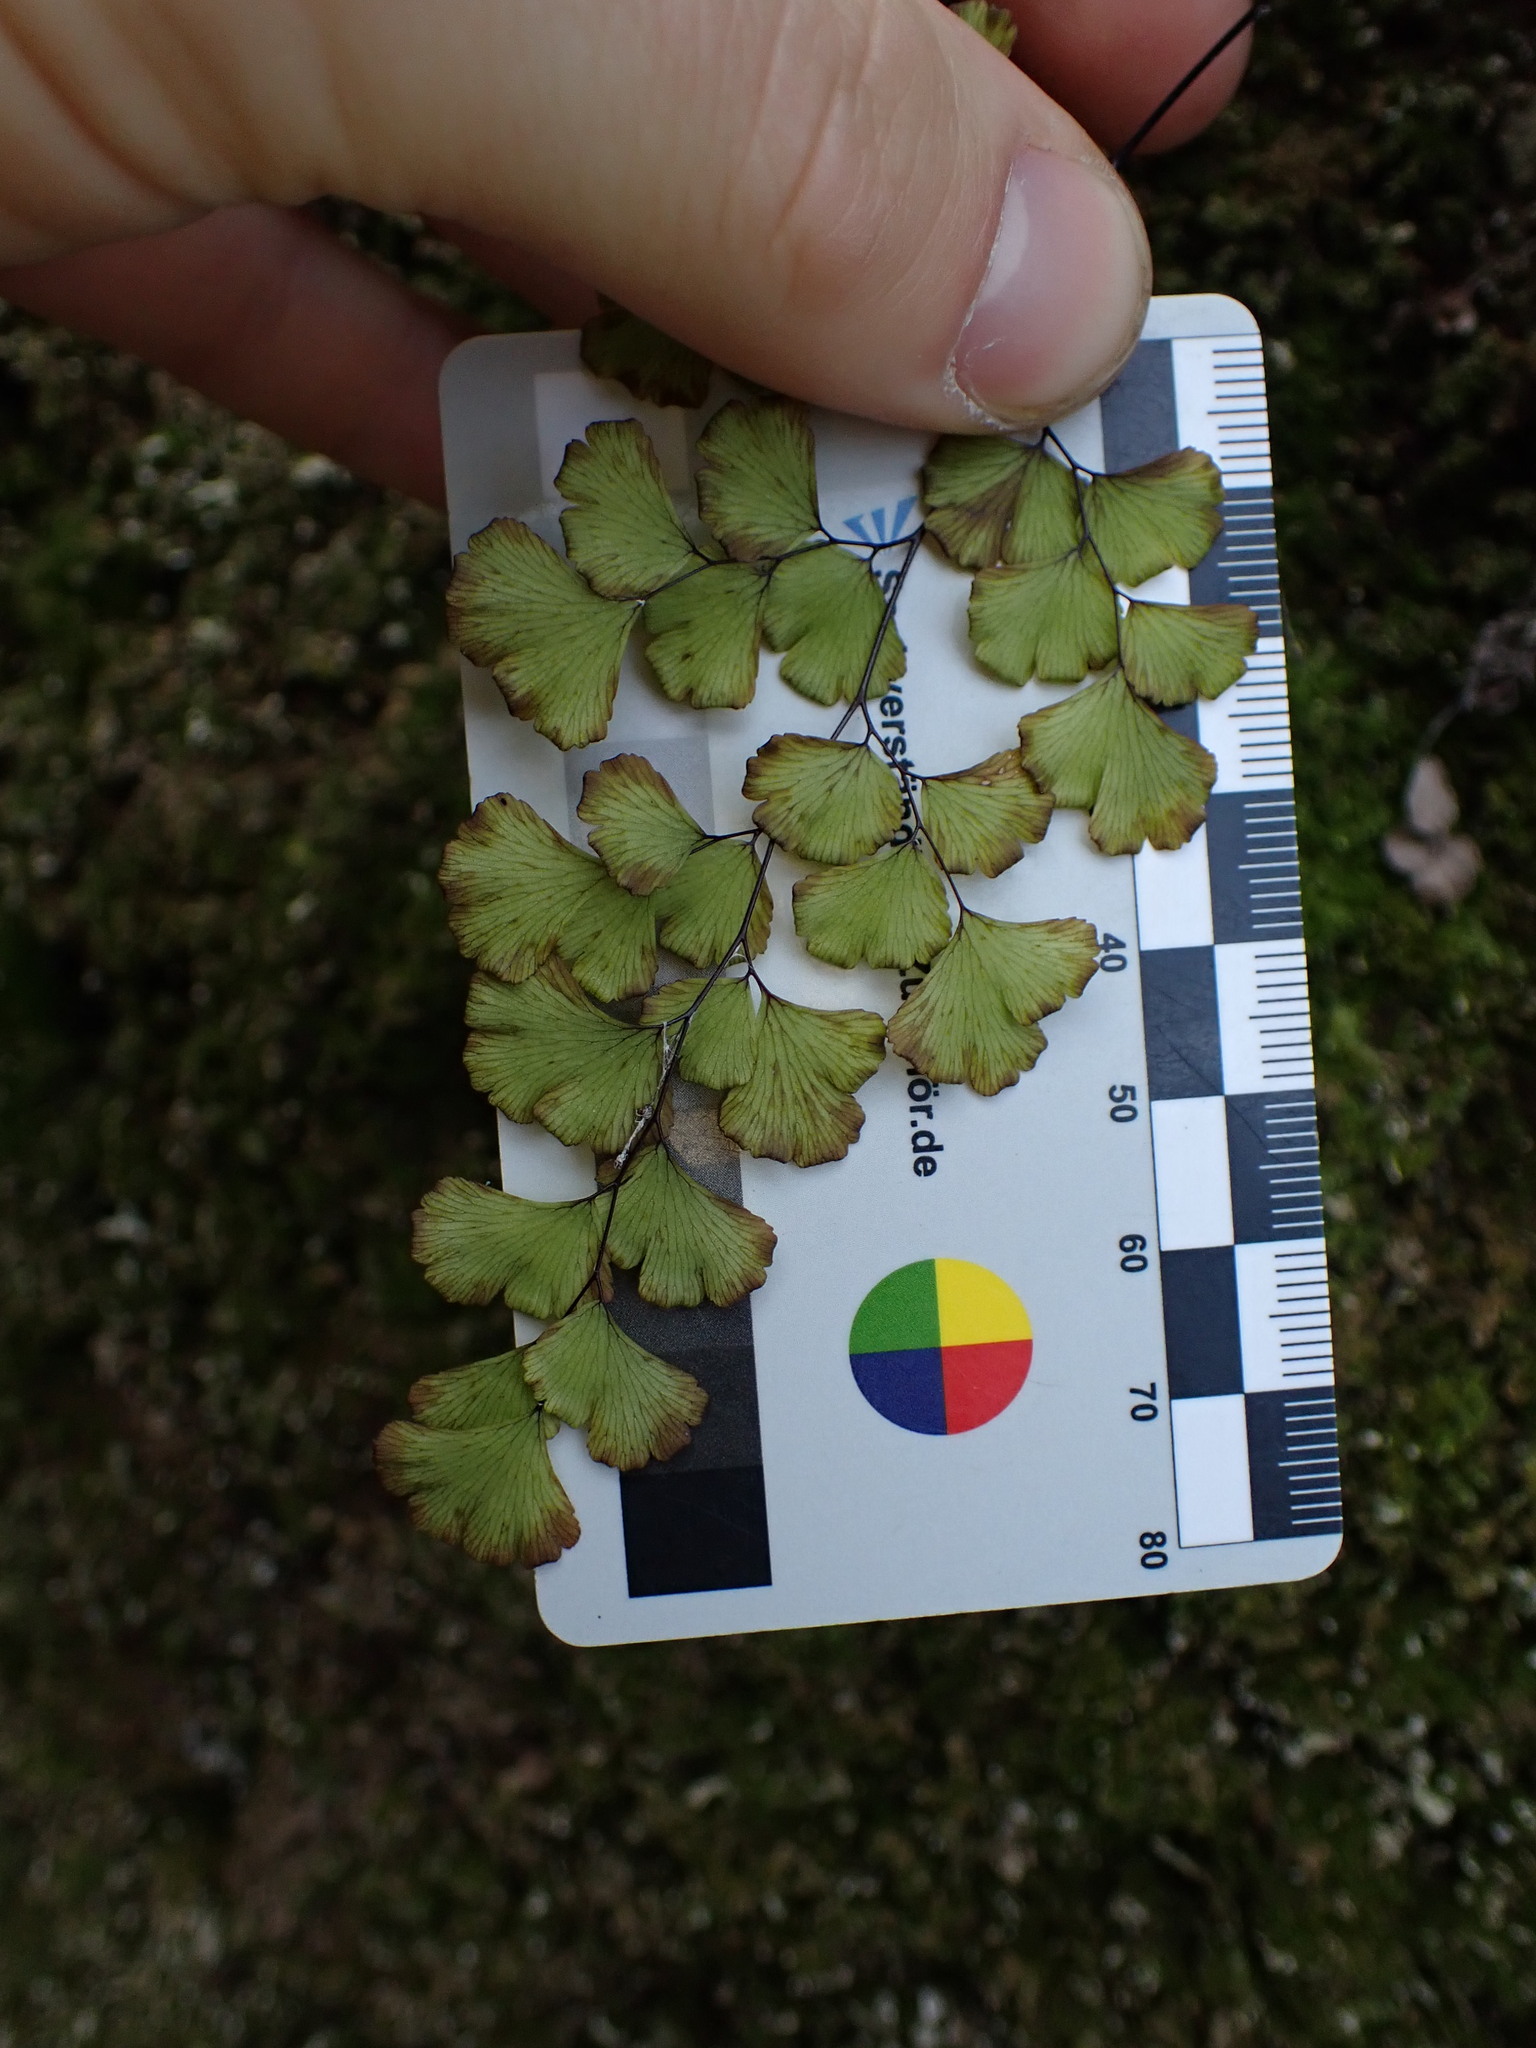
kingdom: Plantae
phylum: Tracheophyta
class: Polypodiopsida
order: Polypodiales
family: Pteridaceae
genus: Adiantum
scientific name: Adiantum capillus-veneris
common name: Maidenhair fern
